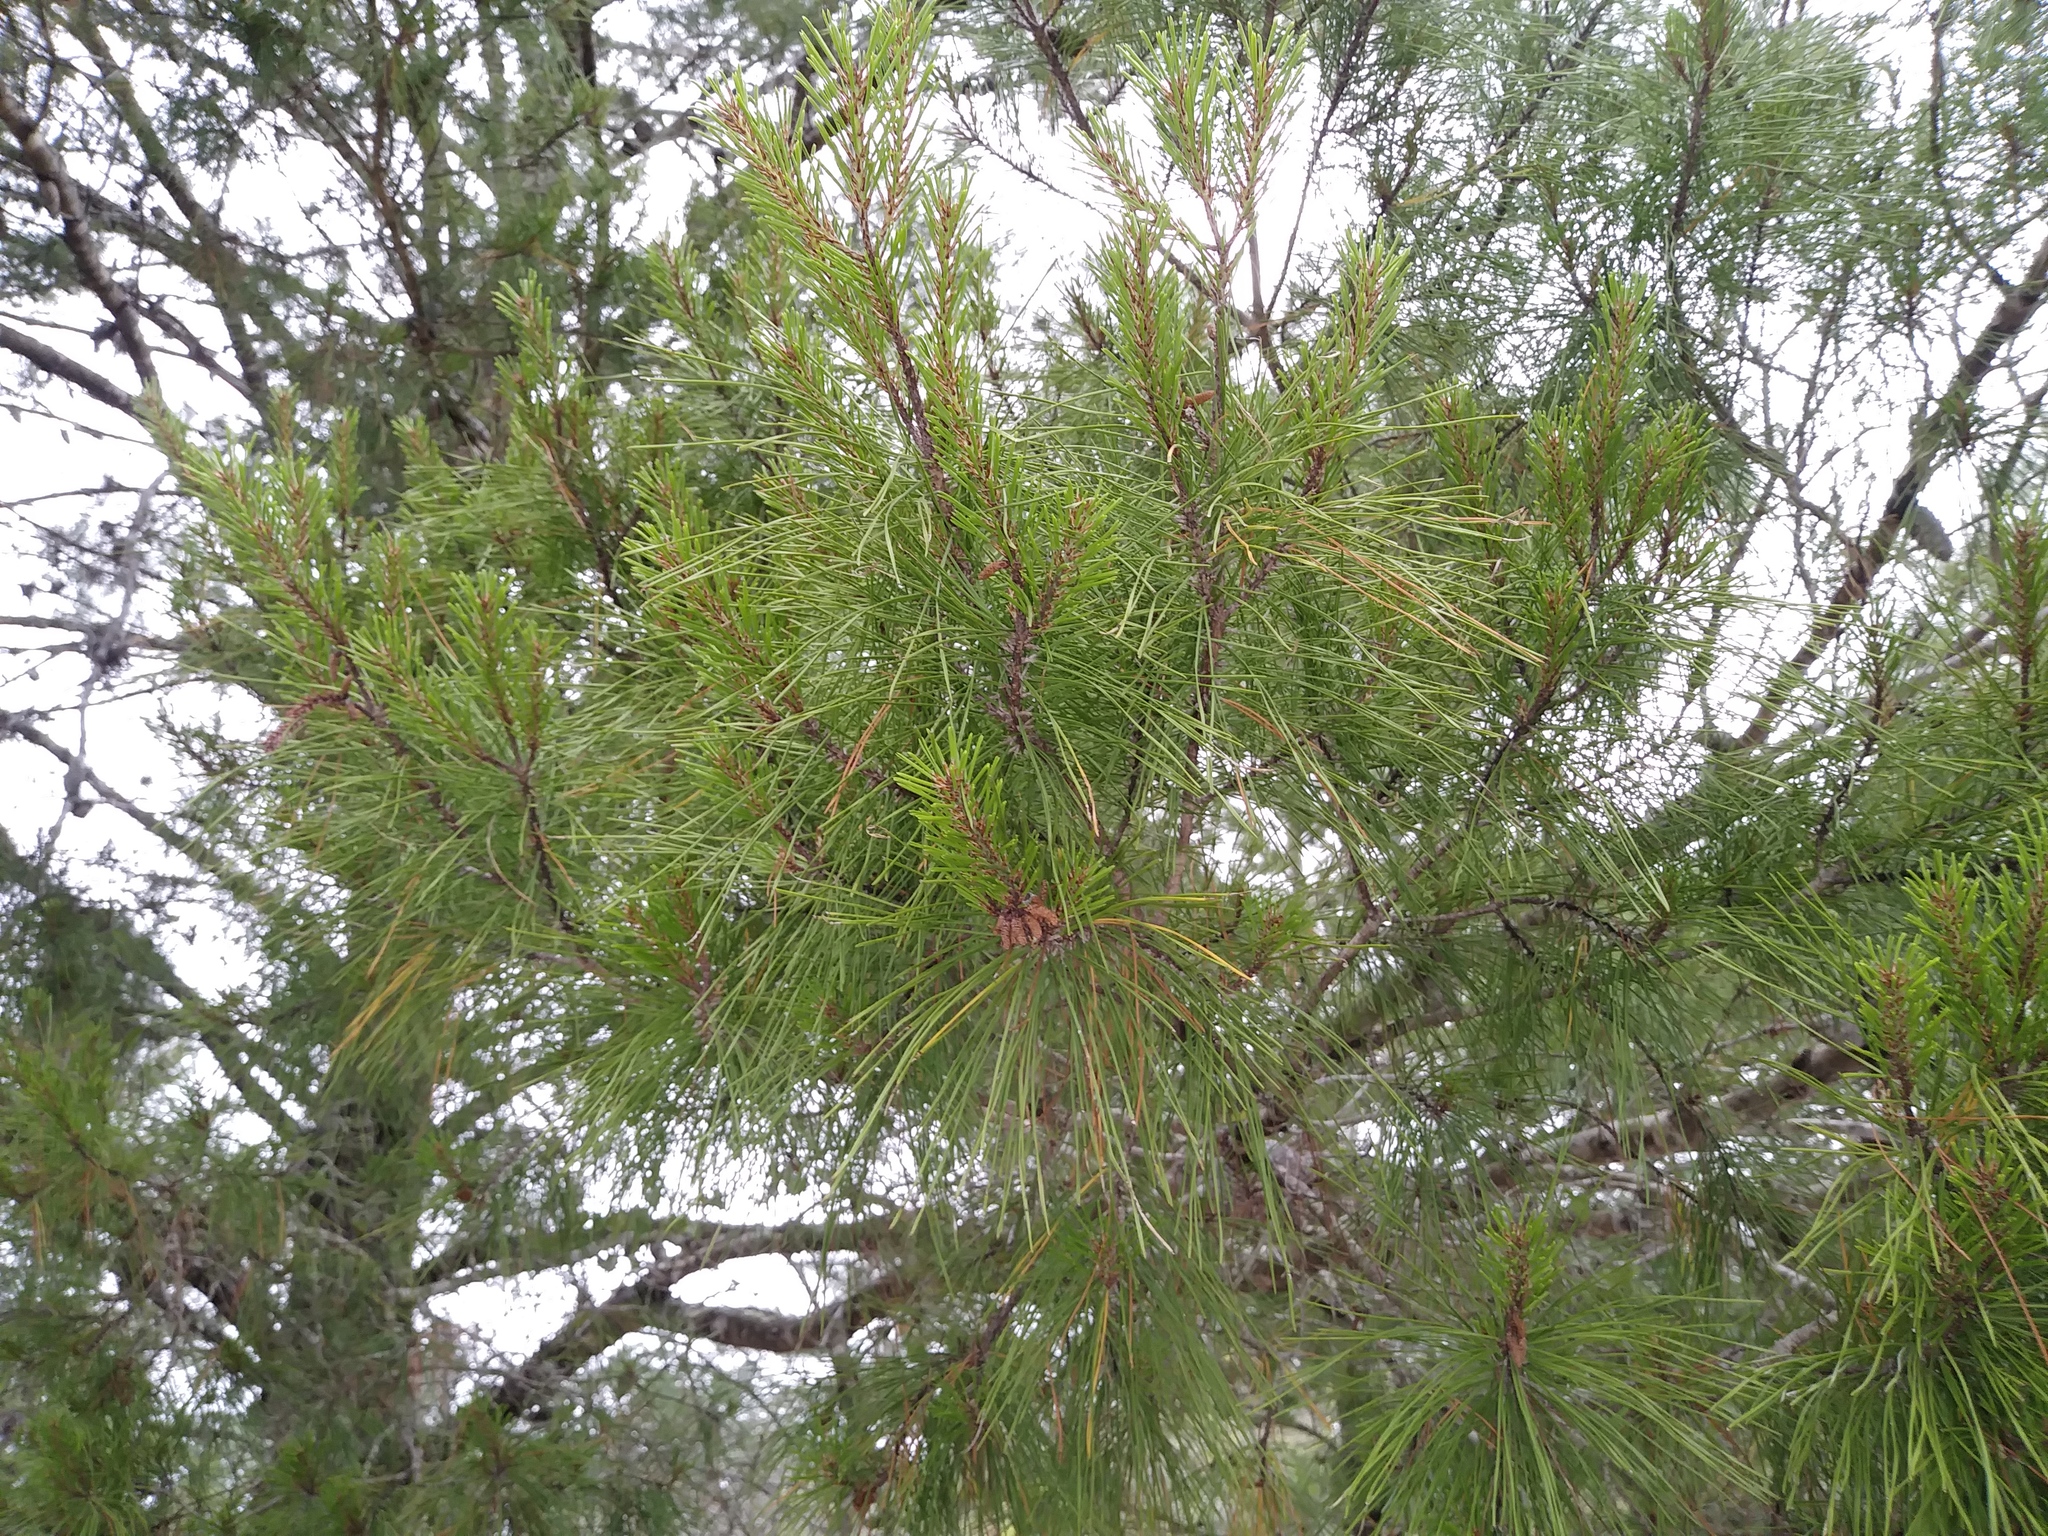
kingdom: Plantae
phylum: Tracheophyta
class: Pinopsida
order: Pinales
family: Pinaceae
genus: Pinus
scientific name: Pinus clausa
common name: Sand pine
